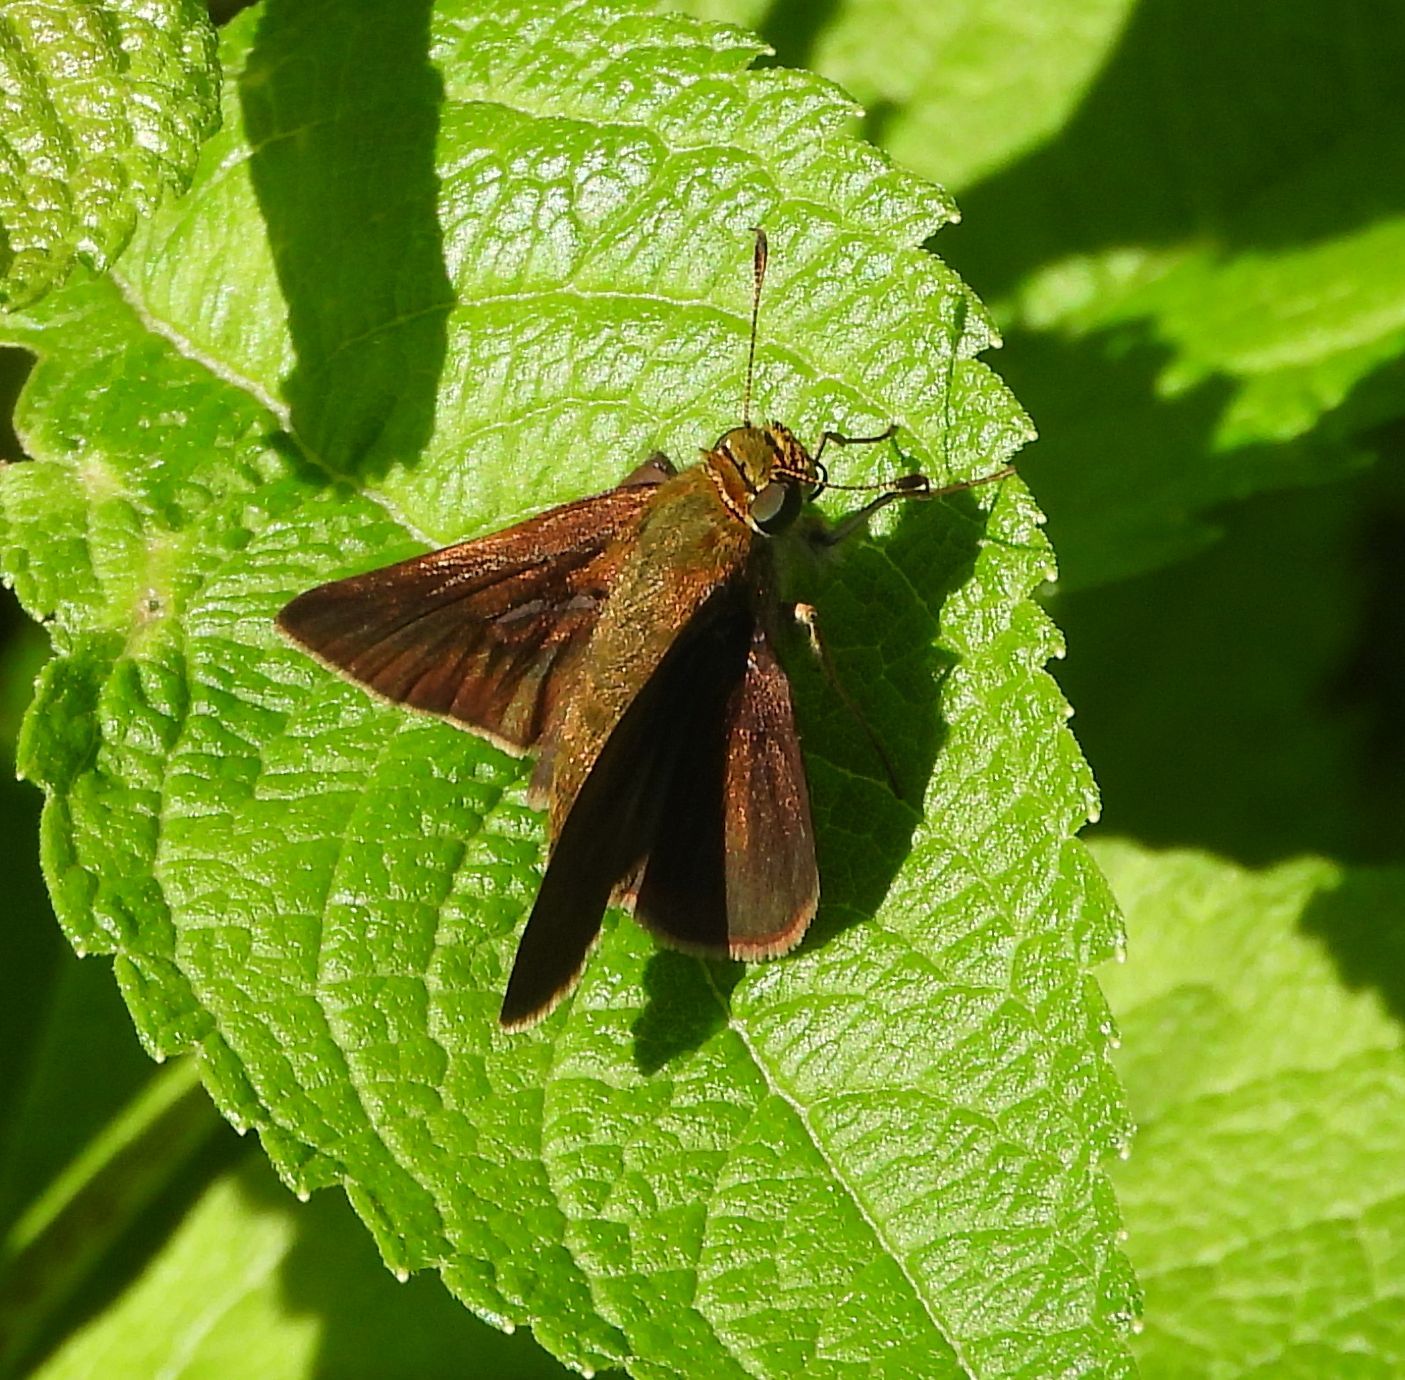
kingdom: Animalia
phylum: Arthropoda
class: Insecta
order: Lepidoptera
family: Hesperiidae
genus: Euphyes
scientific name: Euphyes vestris
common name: Dun skipper
